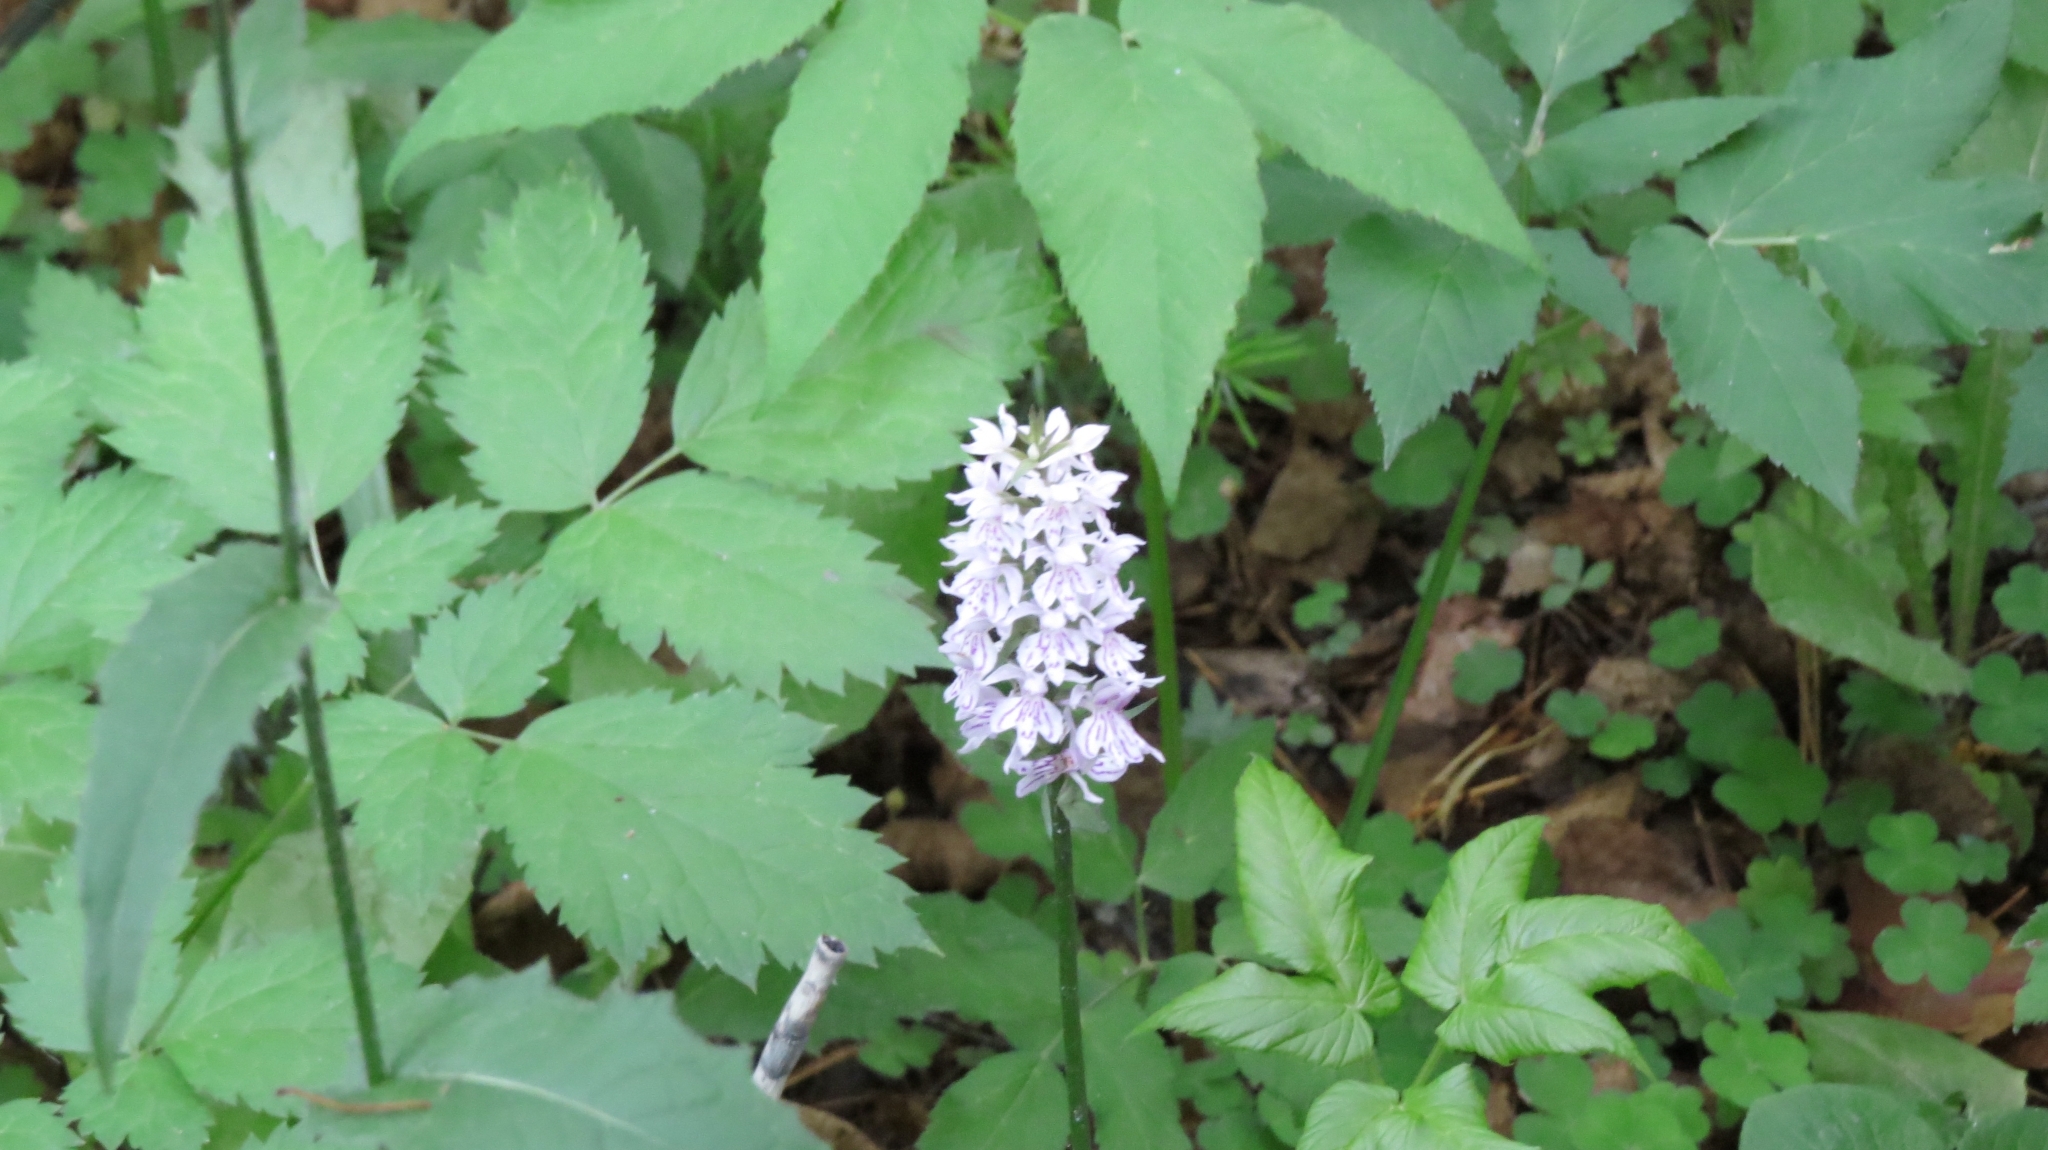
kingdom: Plantae
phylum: Tracheophyta
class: Liliopsida
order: Asparagales
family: Orchidaceae
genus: Dactylorhiza
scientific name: Dactylorhiza maculata
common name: Heath spotted-orchid
